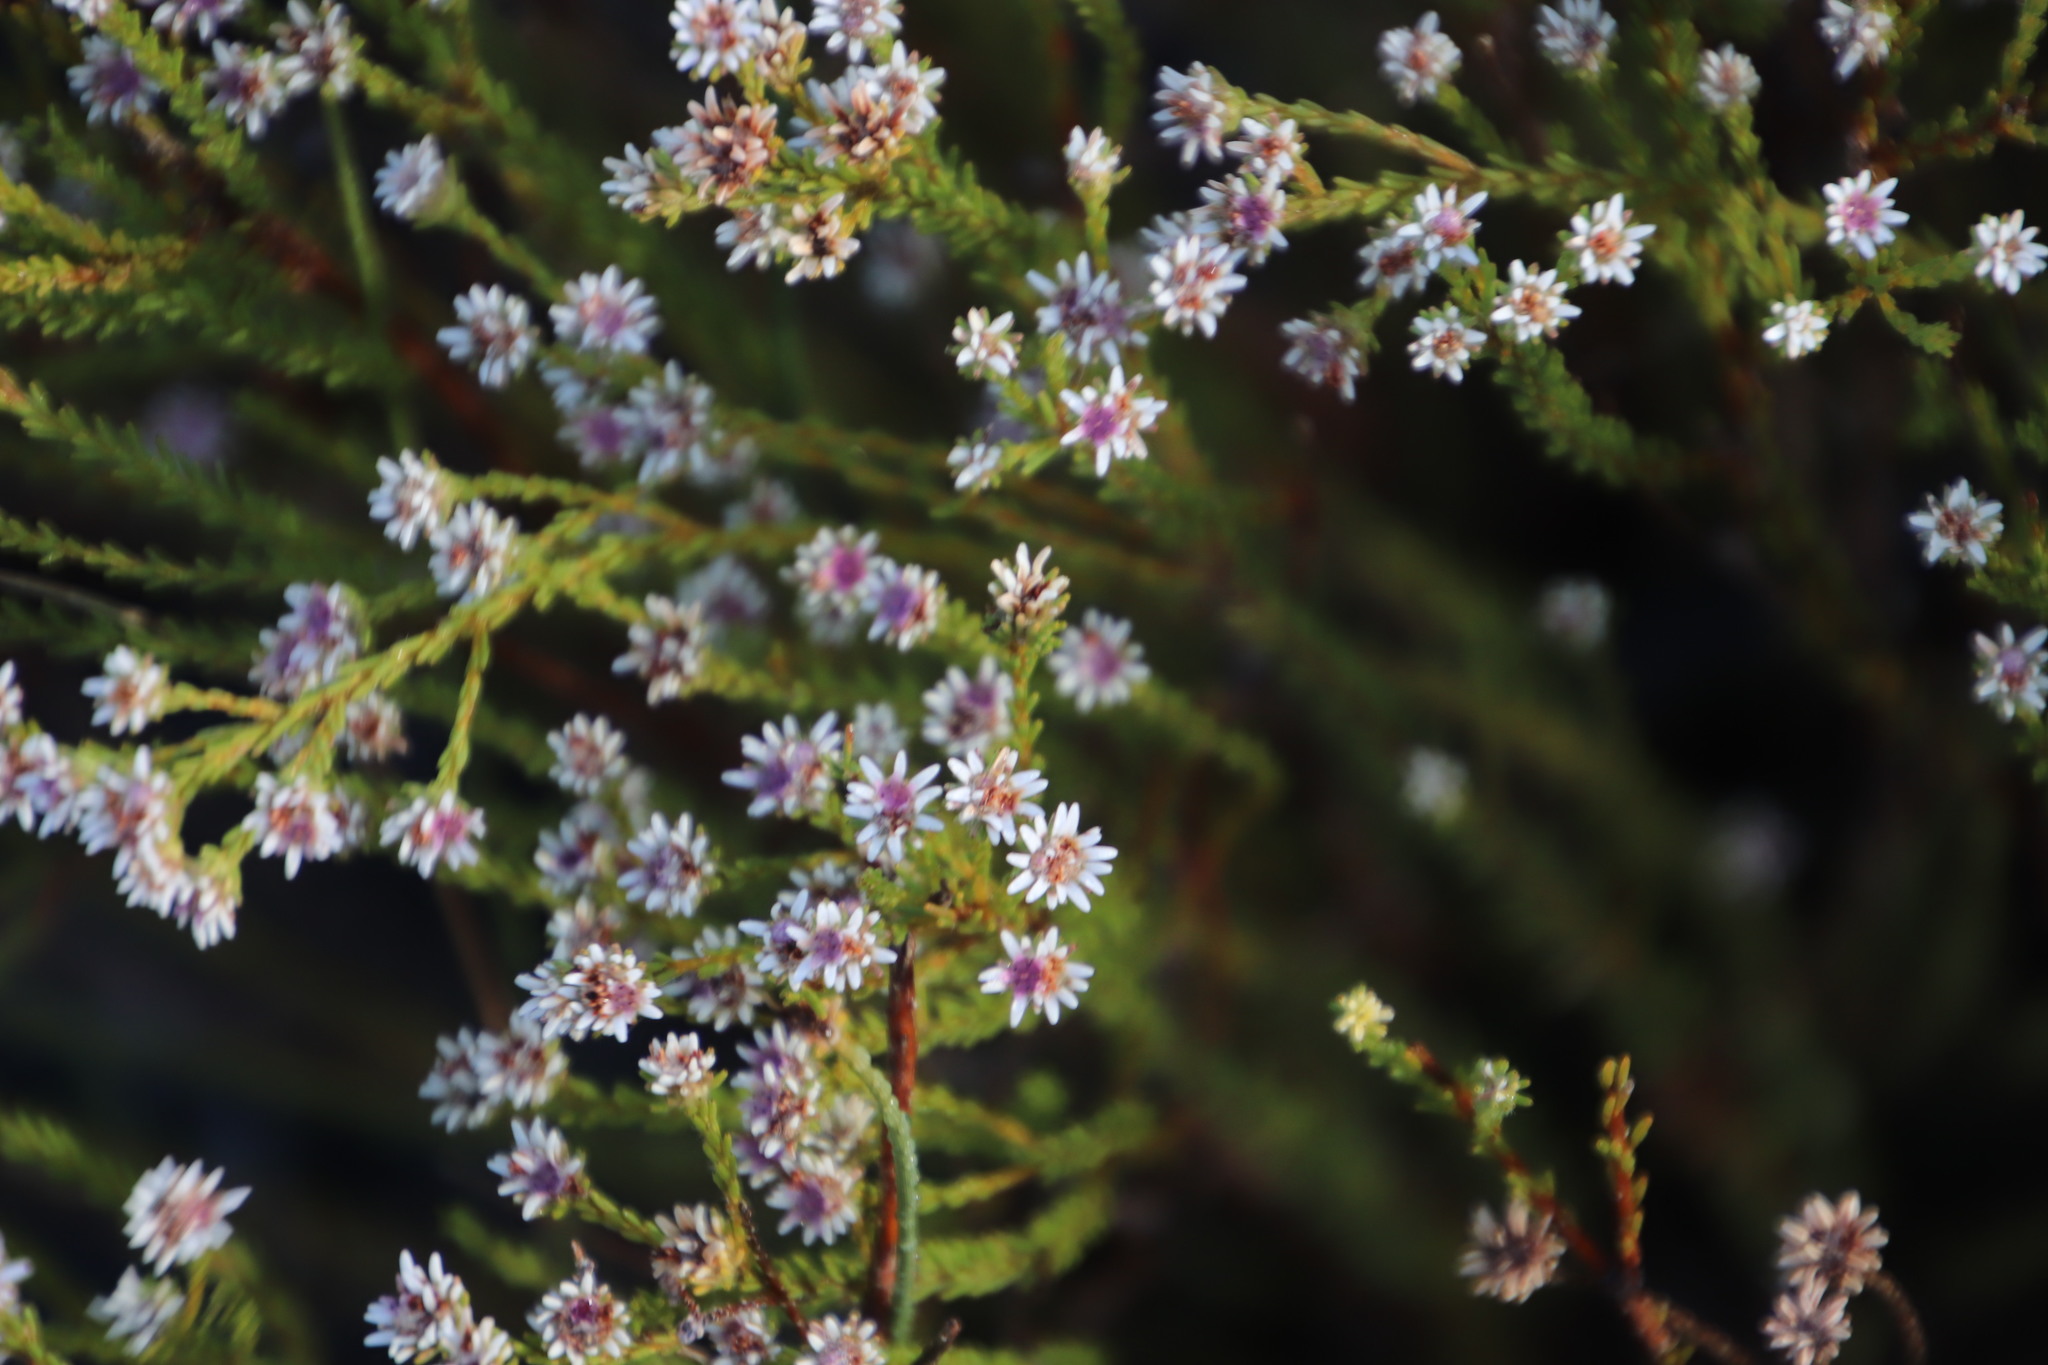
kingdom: Plantae
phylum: Tracheophyta
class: Magnoliopsida
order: Bruniales
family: Bruniaceae
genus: Staavia
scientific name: Staavia radiata
